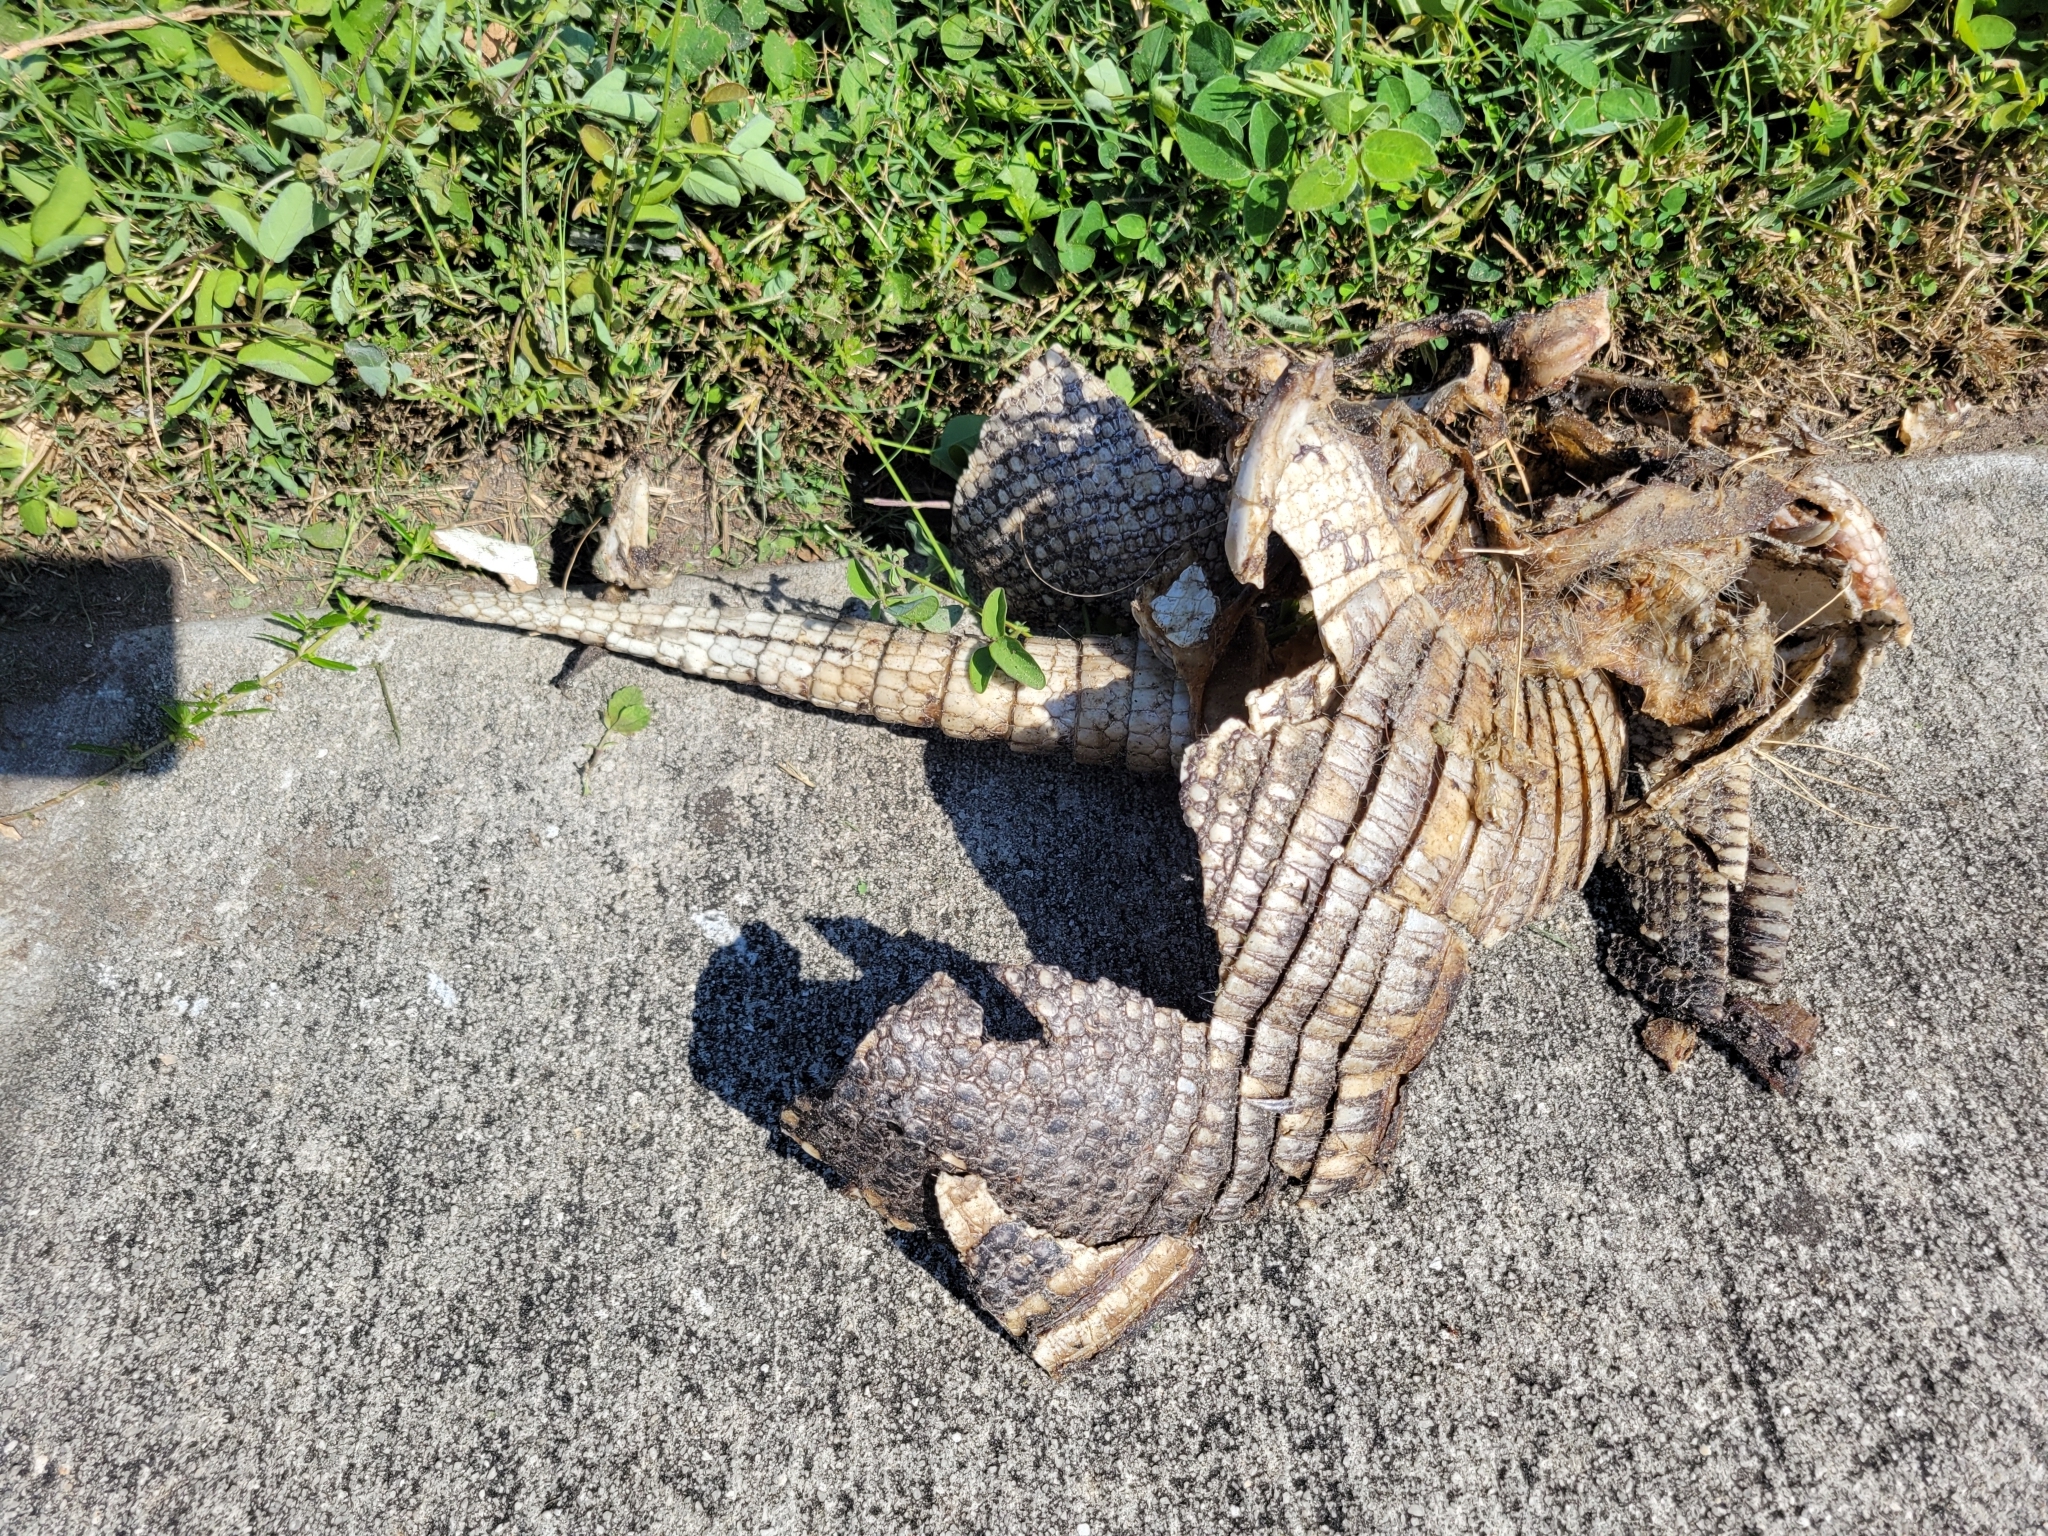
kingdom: Animalia
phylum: Chordata
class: Mammalia
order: Cingulata
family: Dasypodidae
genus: Dasypus
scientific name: Dasypus novemcinctus
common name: Nine-banded armadillo
